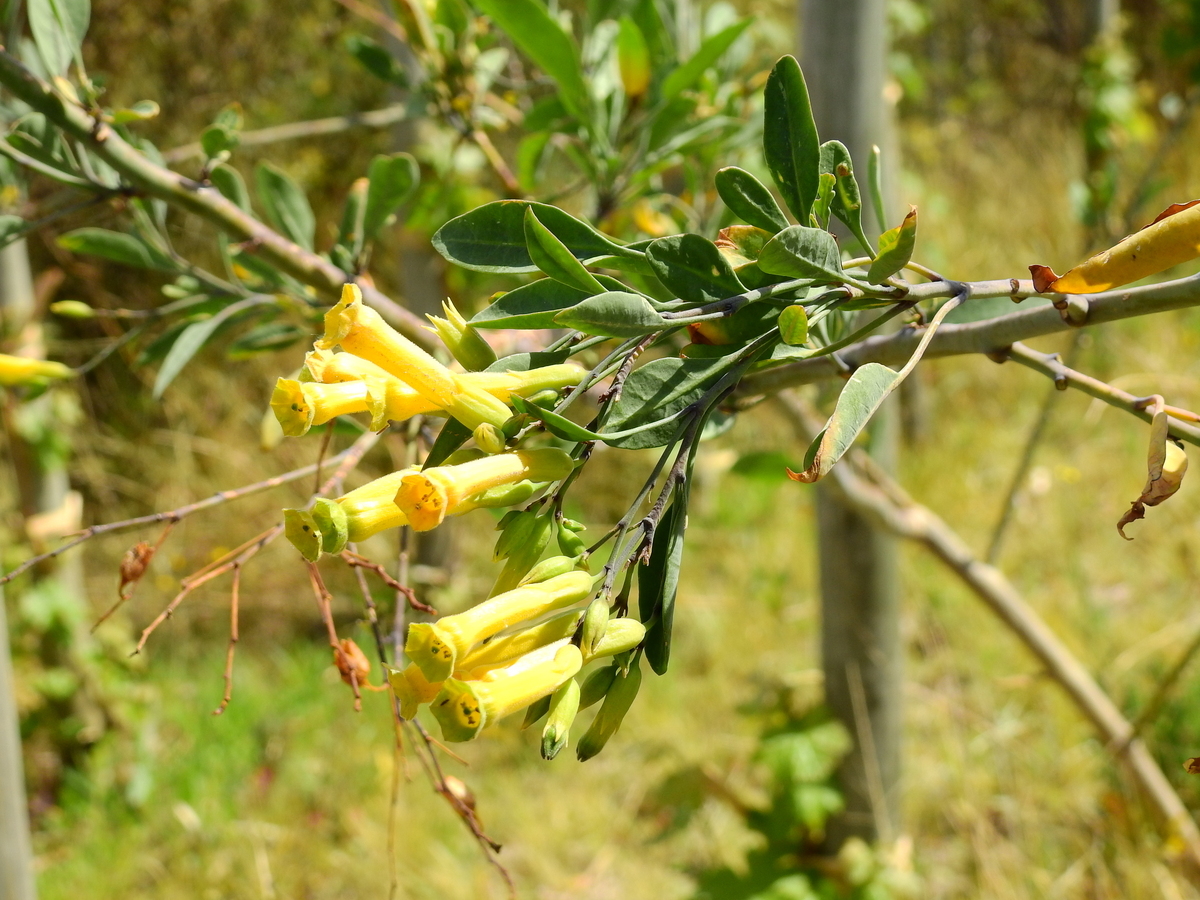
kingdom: Plantae
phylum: Tracheophyta
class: Magnoliopsida
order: Solanales
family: Solanaceae
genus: Nicotiana
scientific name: Nicotiana glauca
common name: Tree tobacco
